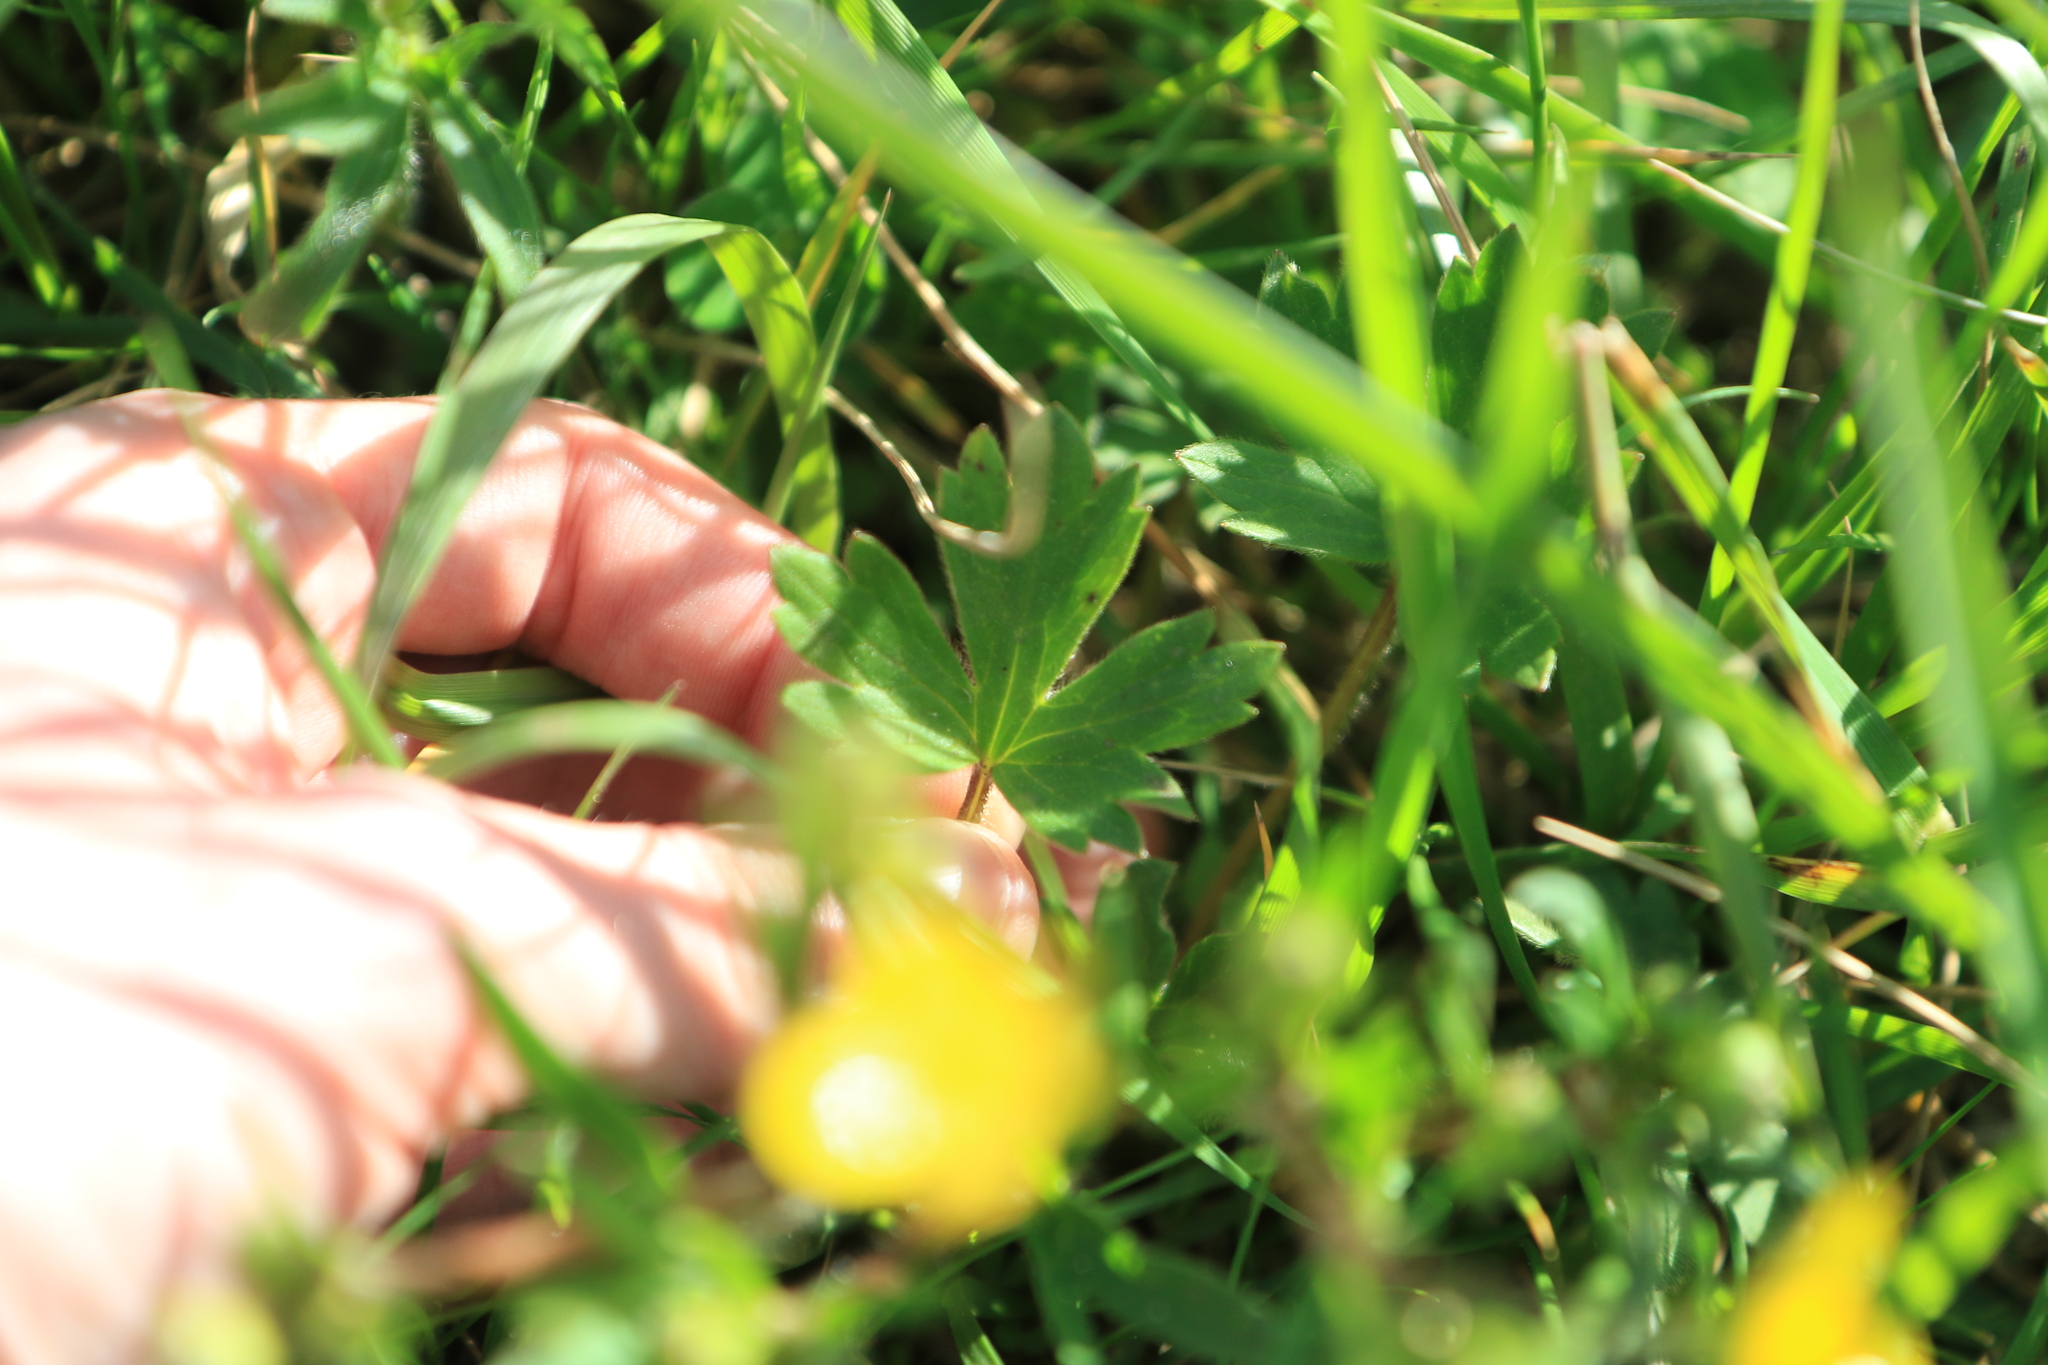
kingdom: Plantae
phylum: Tracheophyta
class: Magnoliopsida
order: Ranunculales
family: Ranunculaceae
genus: Ranunculus
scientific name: Ranunculus occidentalis
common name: Western buttercup
